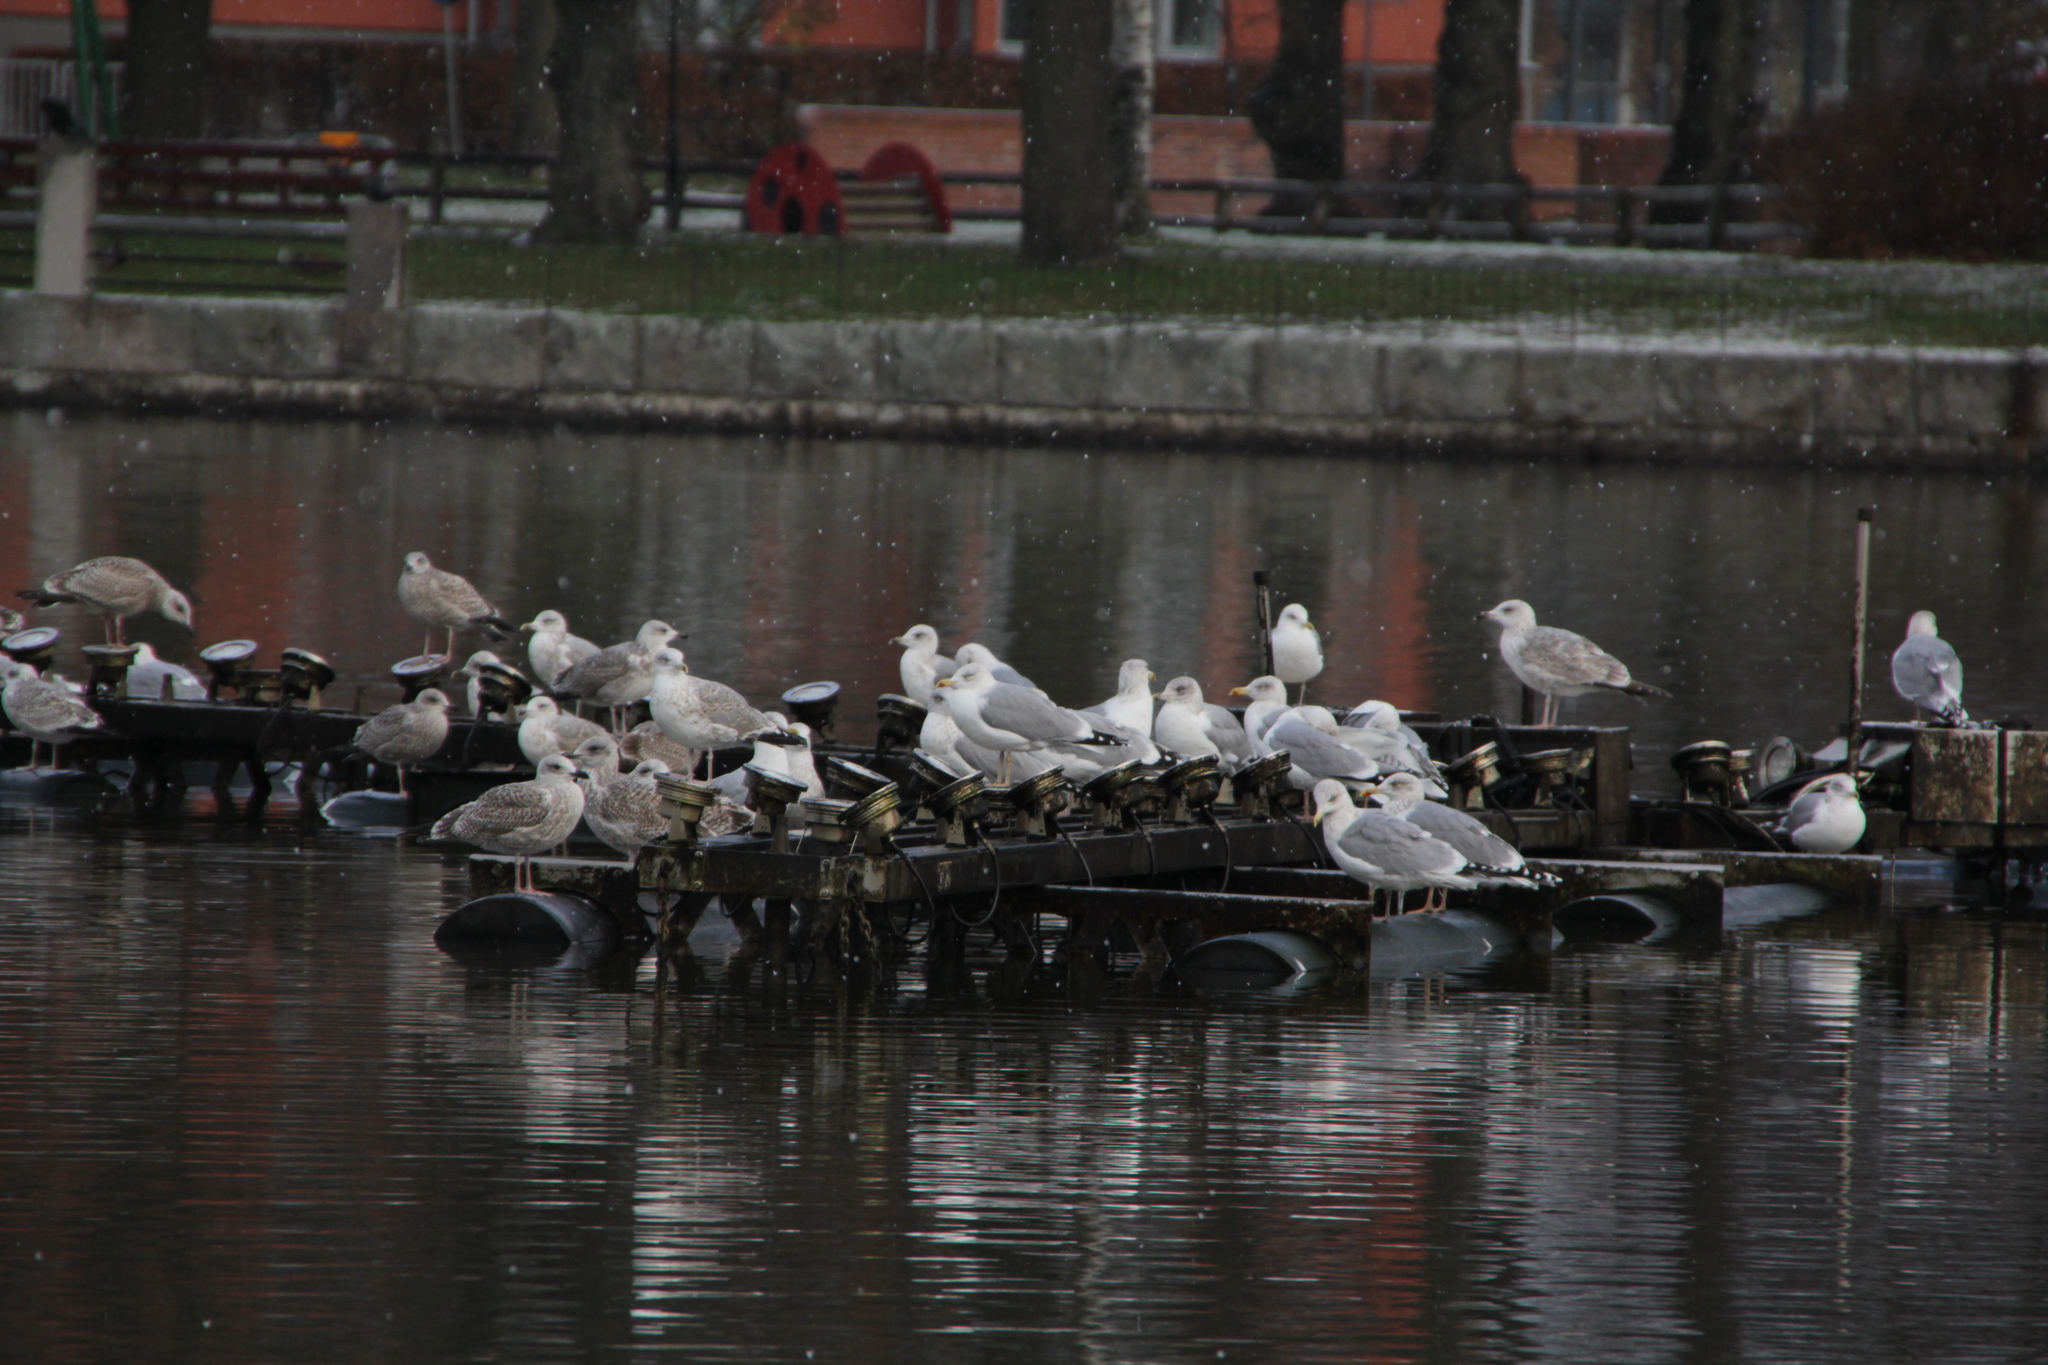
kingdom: Animalia
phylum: Chordata
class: Aves
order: Charadriiformes
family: Laridae
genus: Larus
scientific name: Larus argentatus
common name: Herring gull
